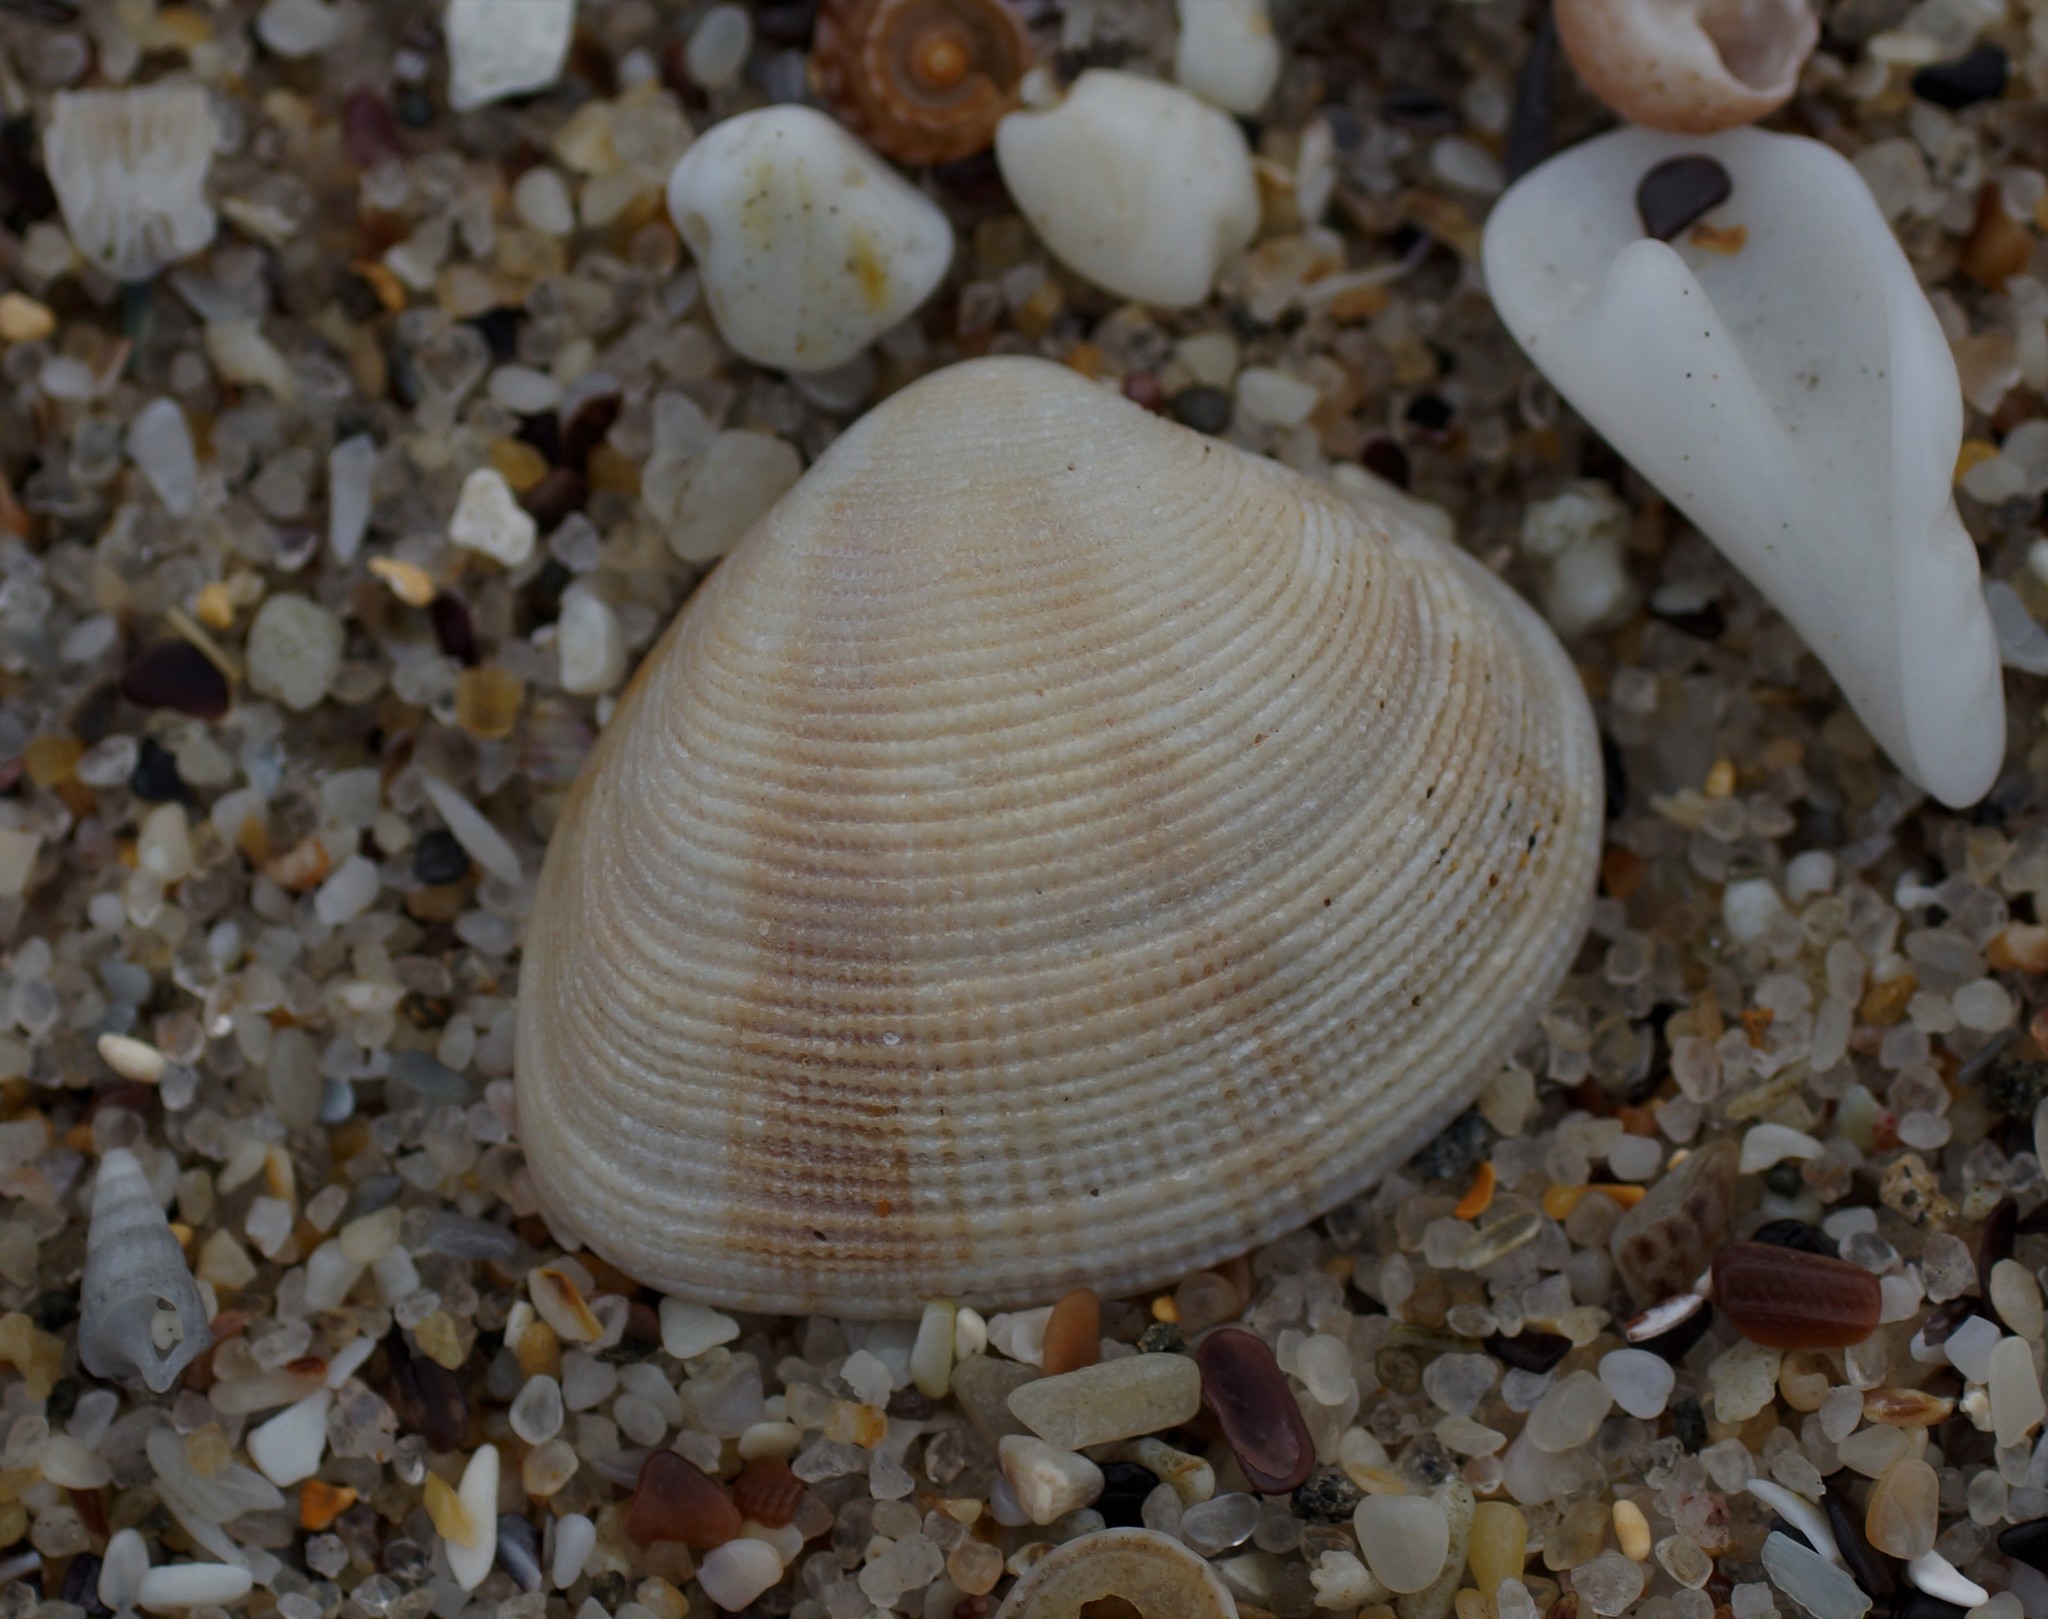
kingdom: Animalia
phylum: Mollusca
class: Bivalvia
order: Venerida
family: Veneridae
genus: Tawera
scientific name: Tawera lagopus
